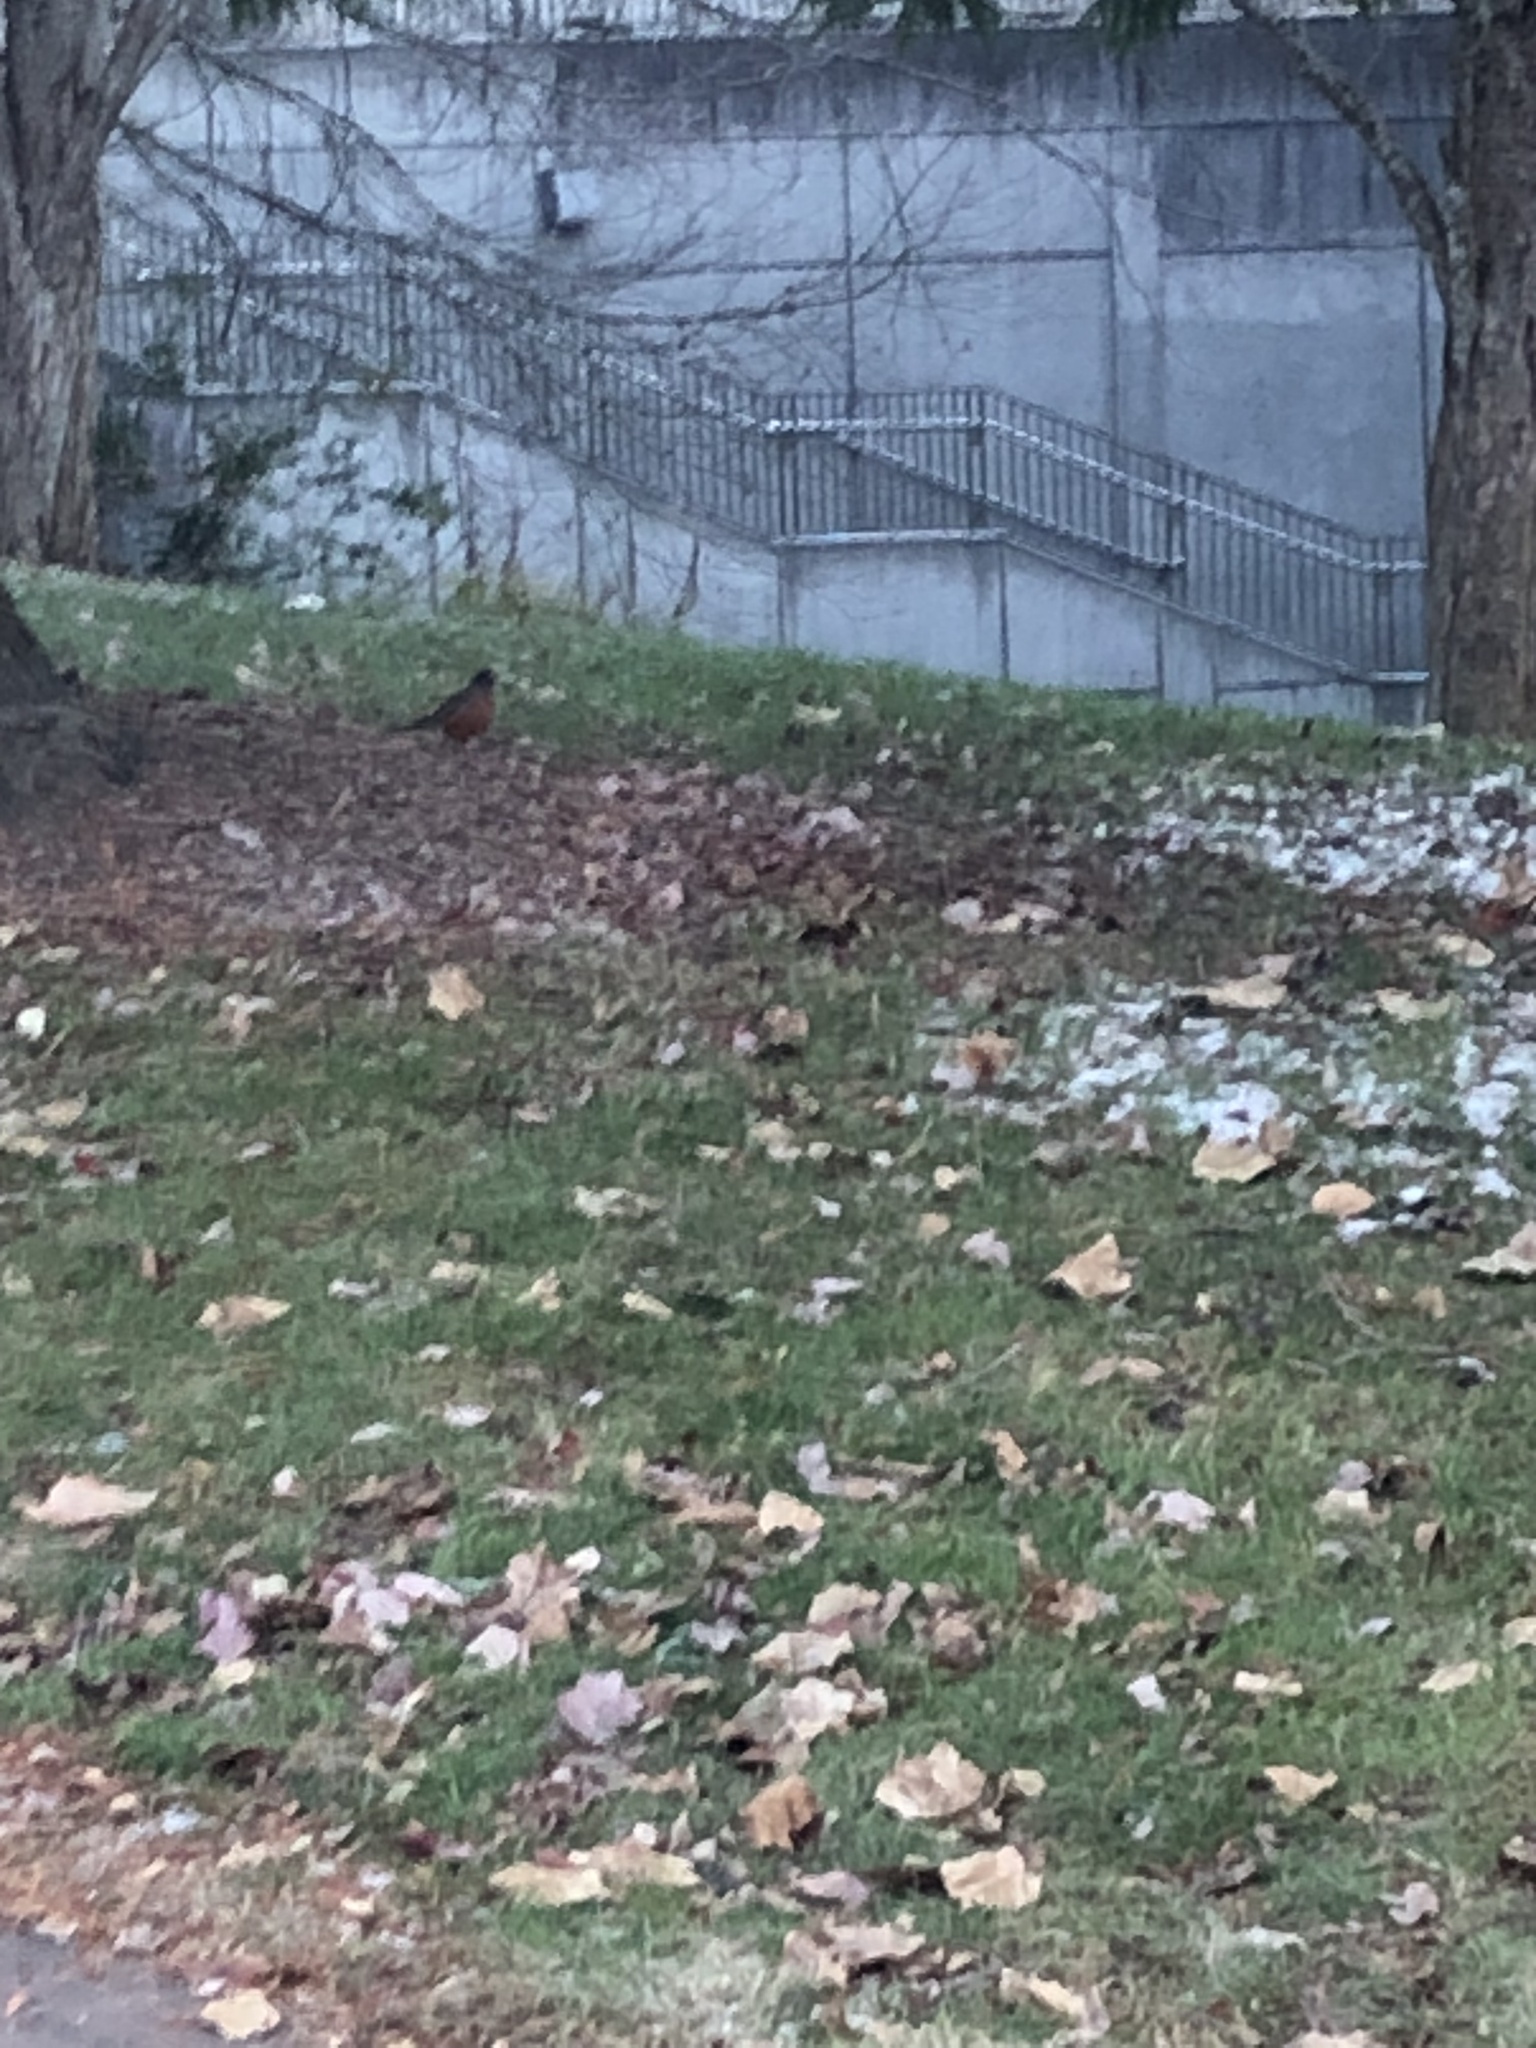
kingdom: Animalia
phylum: Chordata
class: Aves
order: Passeriformes
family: Turdidae
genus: Turdus
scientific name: Turdus migratorius
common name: American robin
